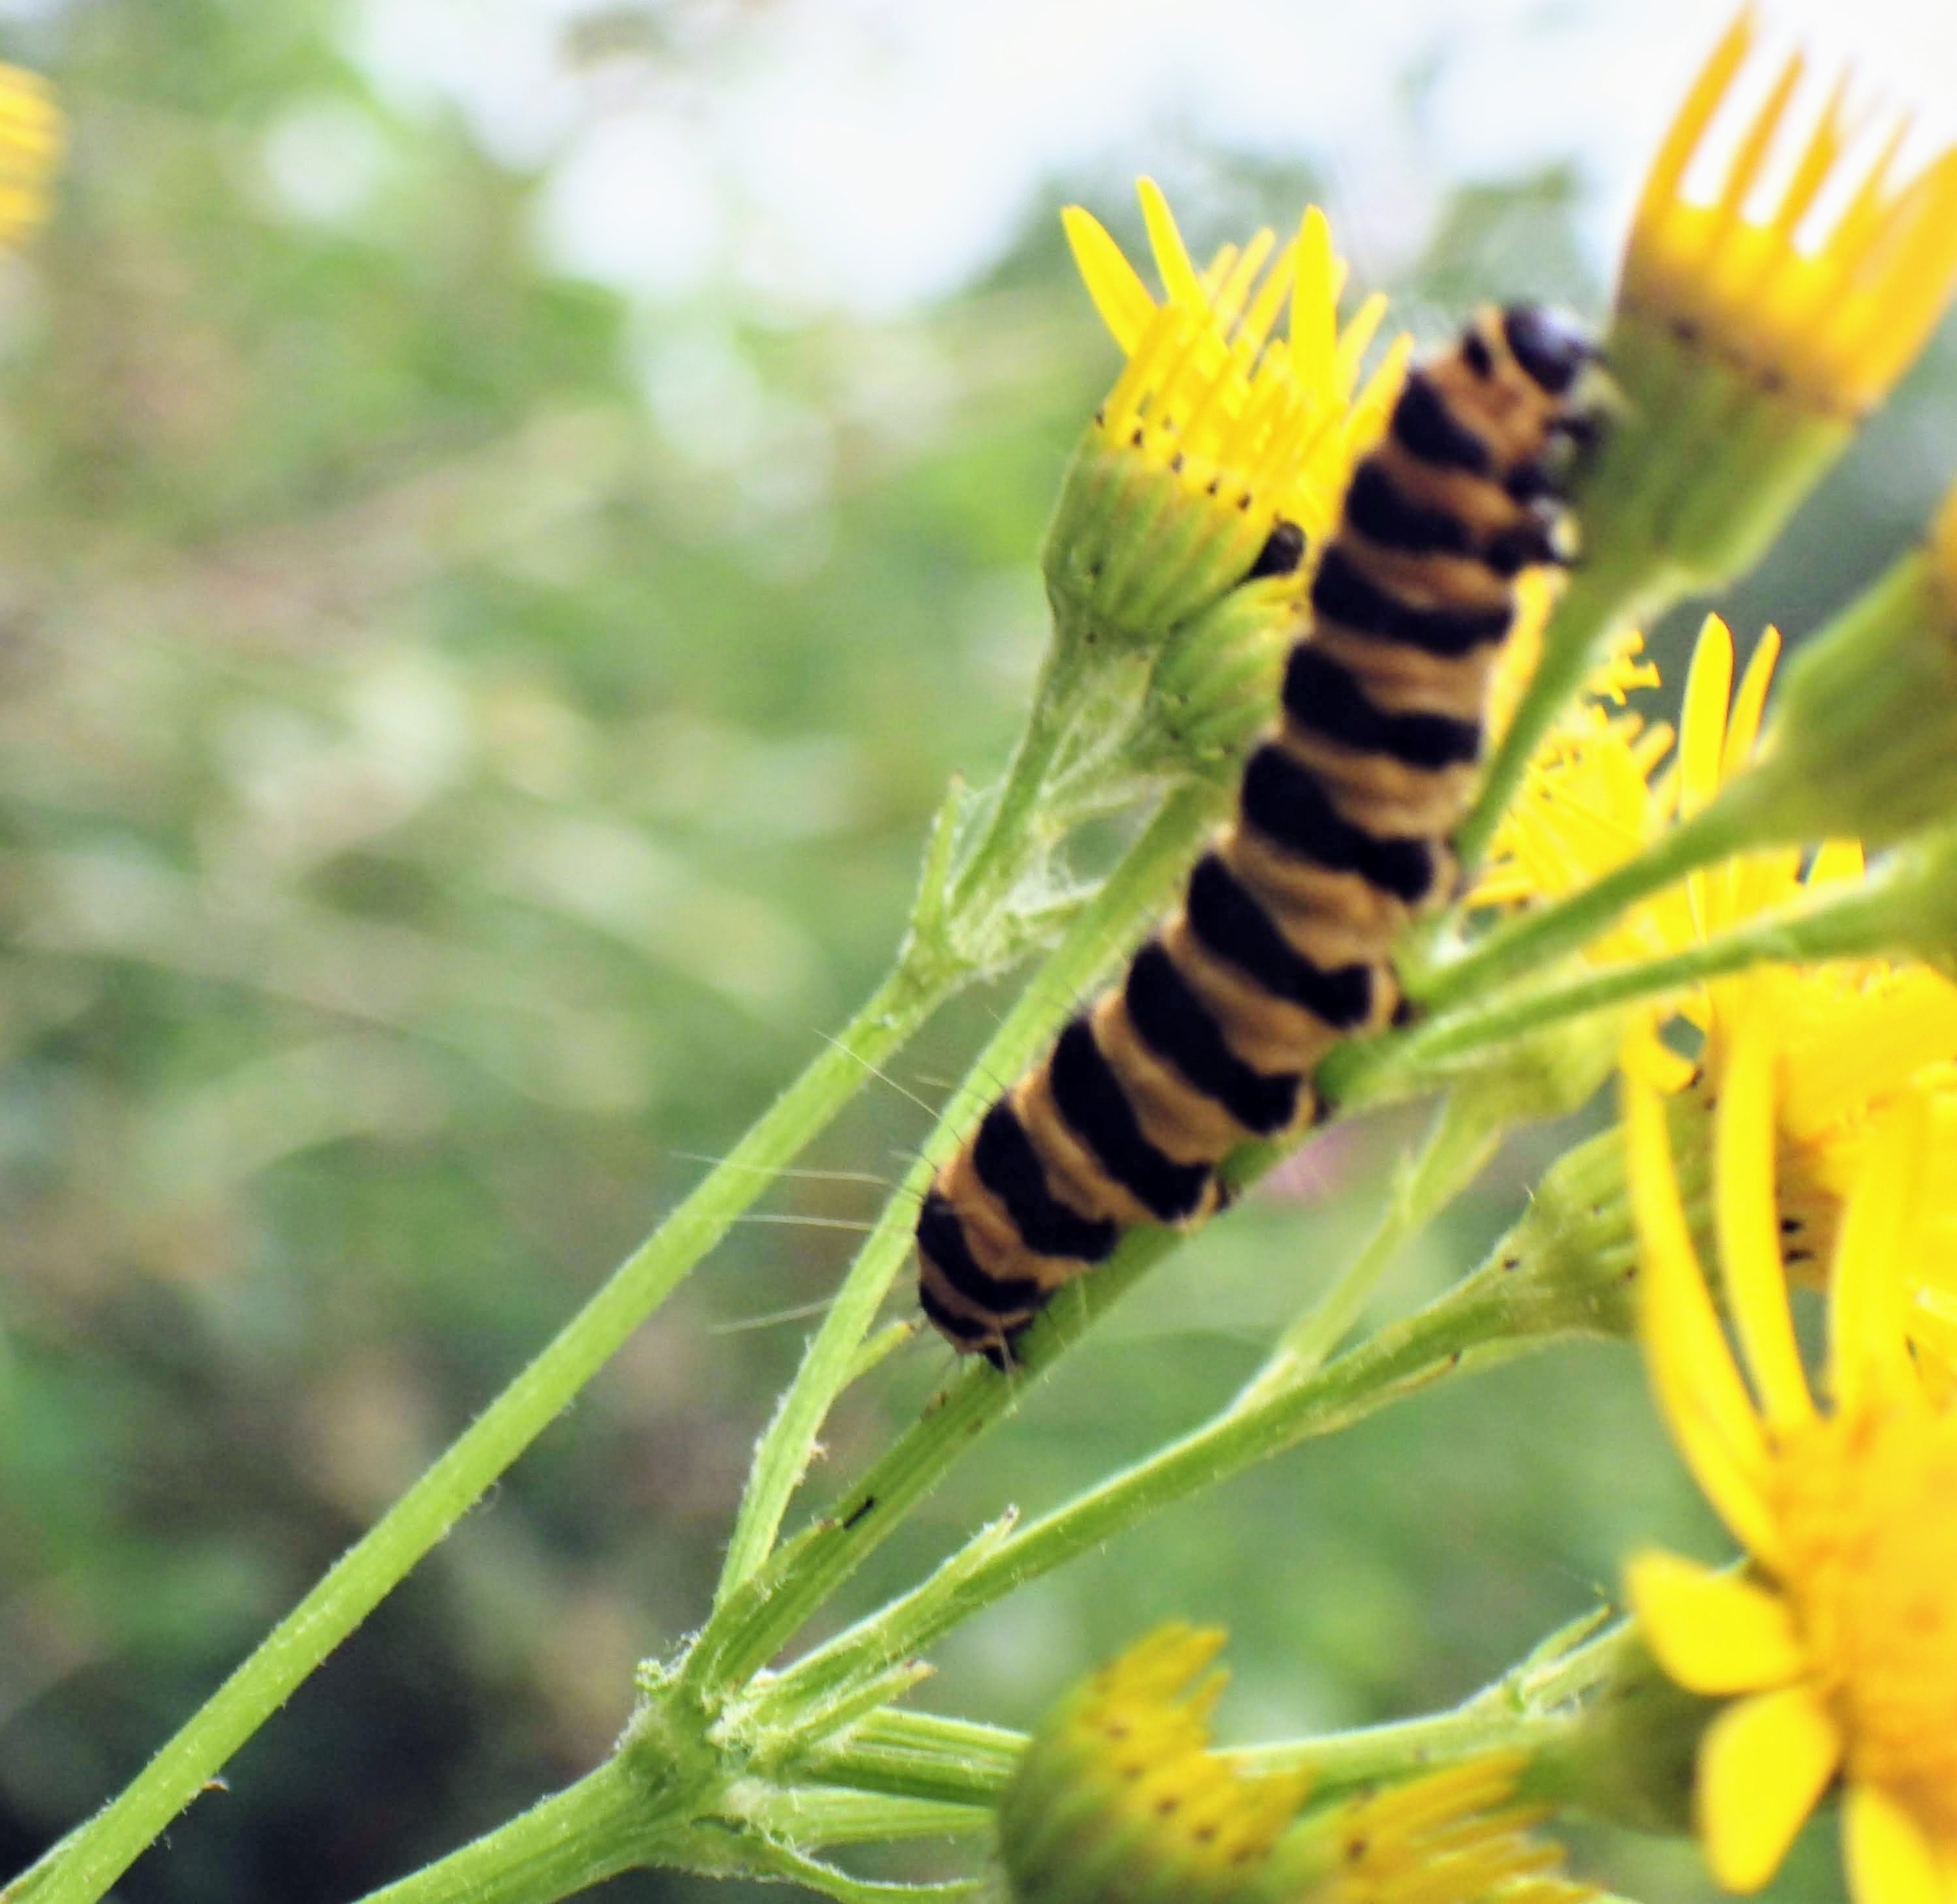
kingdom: Animalia
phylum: Arthropoda
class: Insecta
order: Lepidoptera
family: Erebidae
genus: Tyria
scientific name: Tyria jacobaeae
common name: Cinnabar
